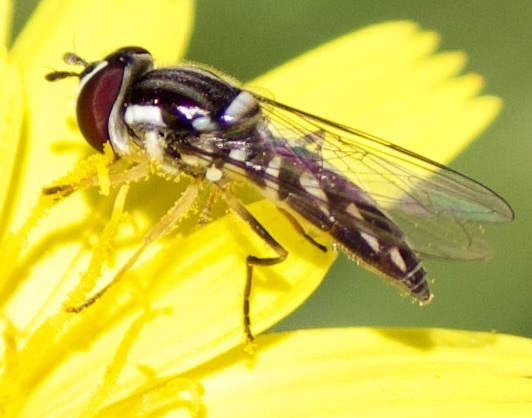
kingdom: Animalia
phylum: Arthropoda
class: Insecta
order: Diptera
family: Syrphidae
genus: Allograpta
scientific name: Allograpta piurana
